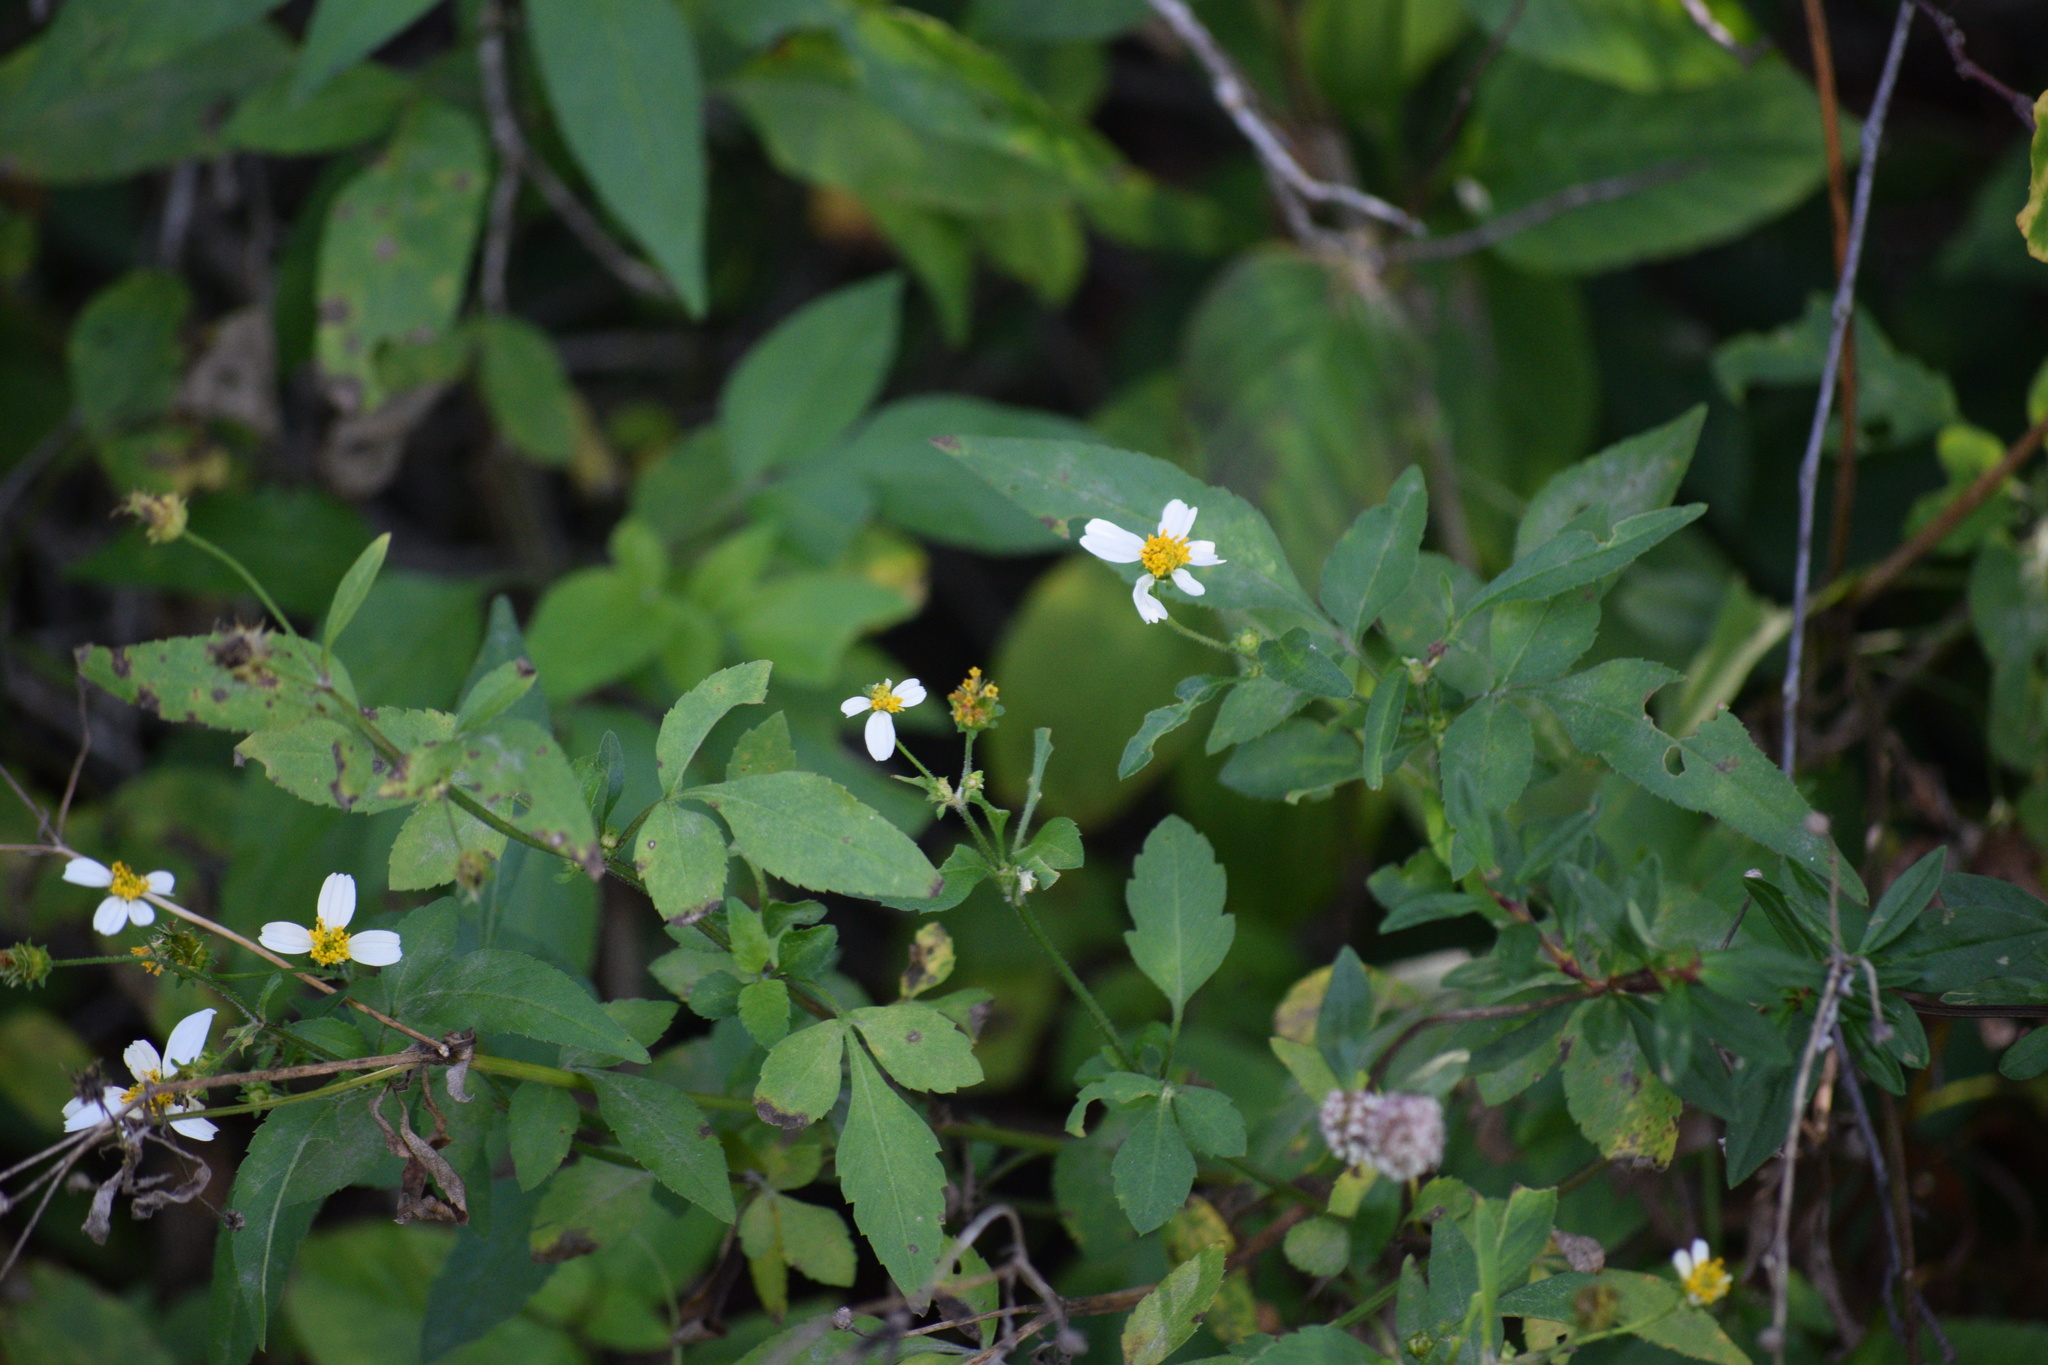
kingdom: Plantae
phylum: Tracheophyta
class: Magnoliopsida
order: Asterales
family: Asteraceae
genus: Bidens
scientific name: Bidens alba
